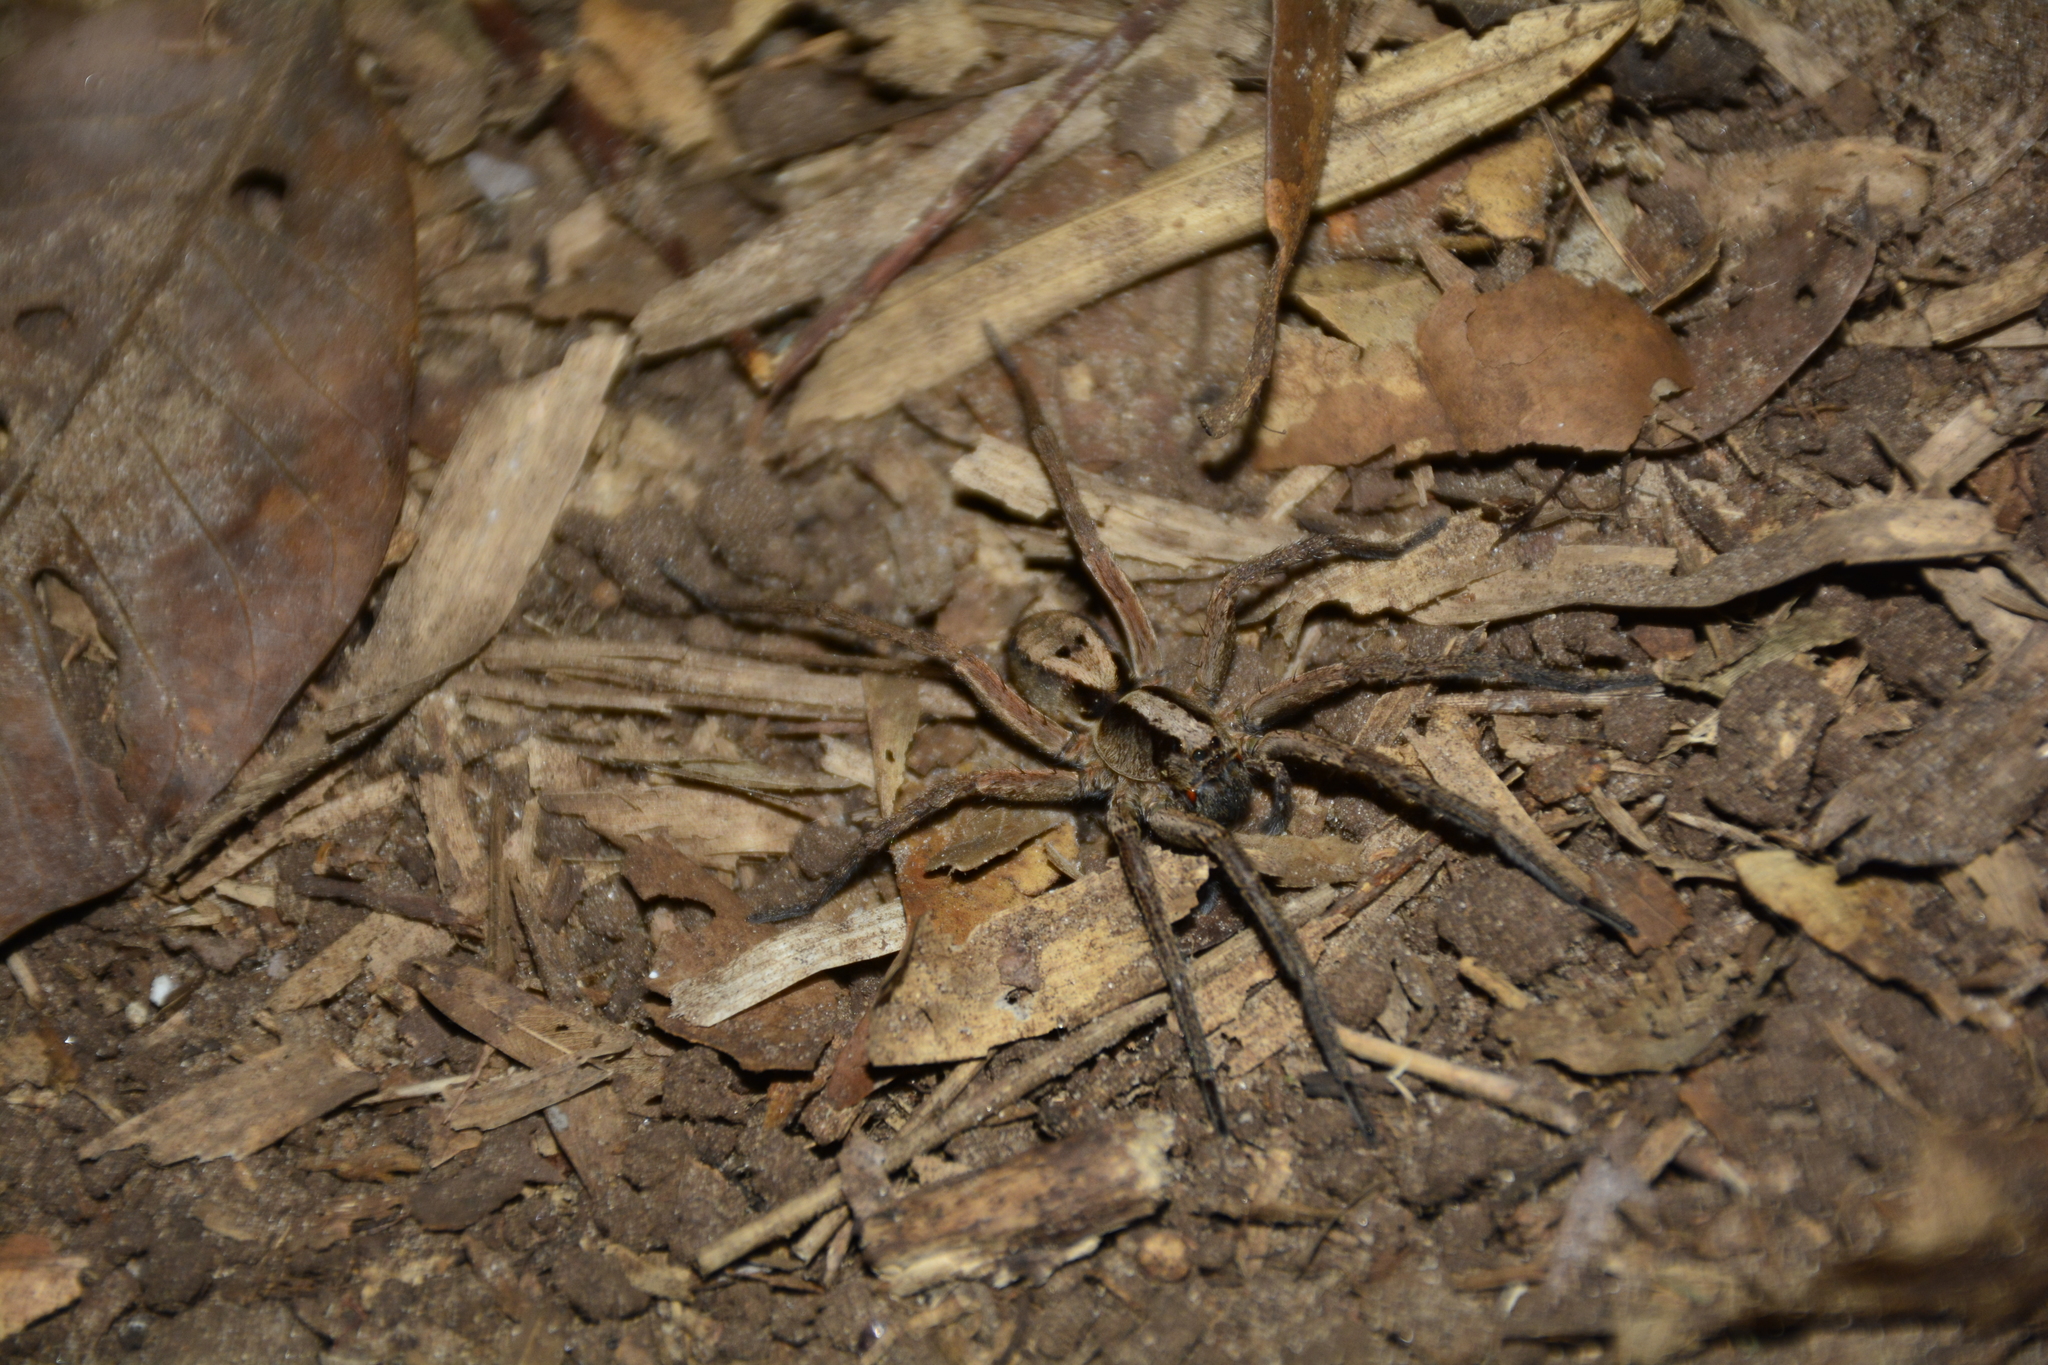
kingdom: Animalia
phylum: Arthropoda
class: Arachnida
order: Araneae
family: Lycosidae
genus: Hogna
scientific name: Hogna gumia
